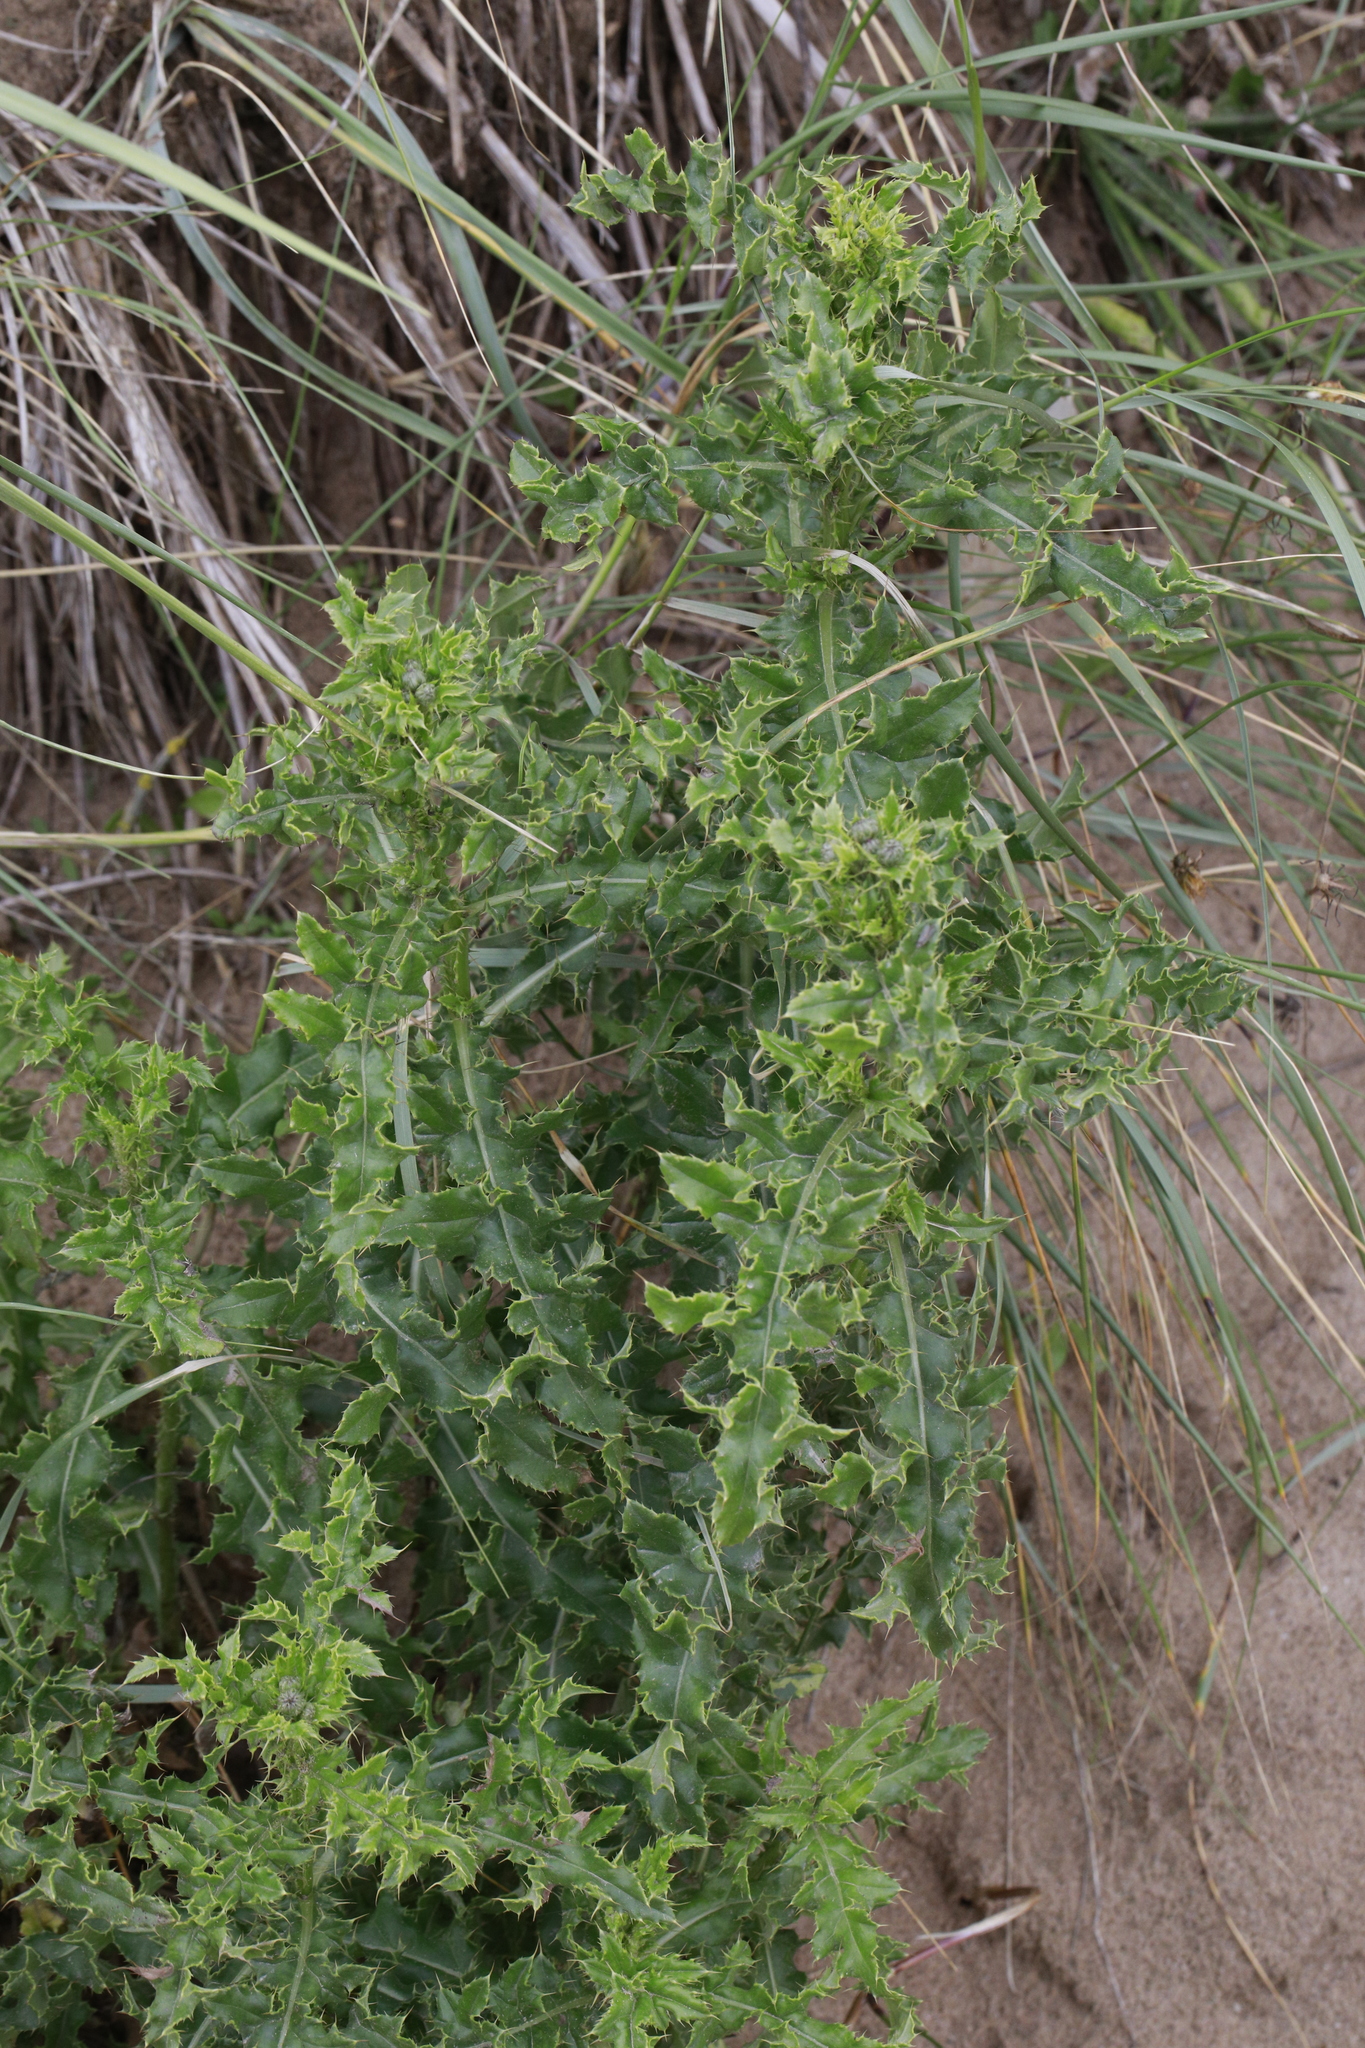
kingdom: Plantae
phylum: Tracheophyta
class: Magnoliopsida
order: Asterales
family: Asteraceae
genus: Cirsium
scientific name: Cirsium arvense
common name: Creeping thistle
